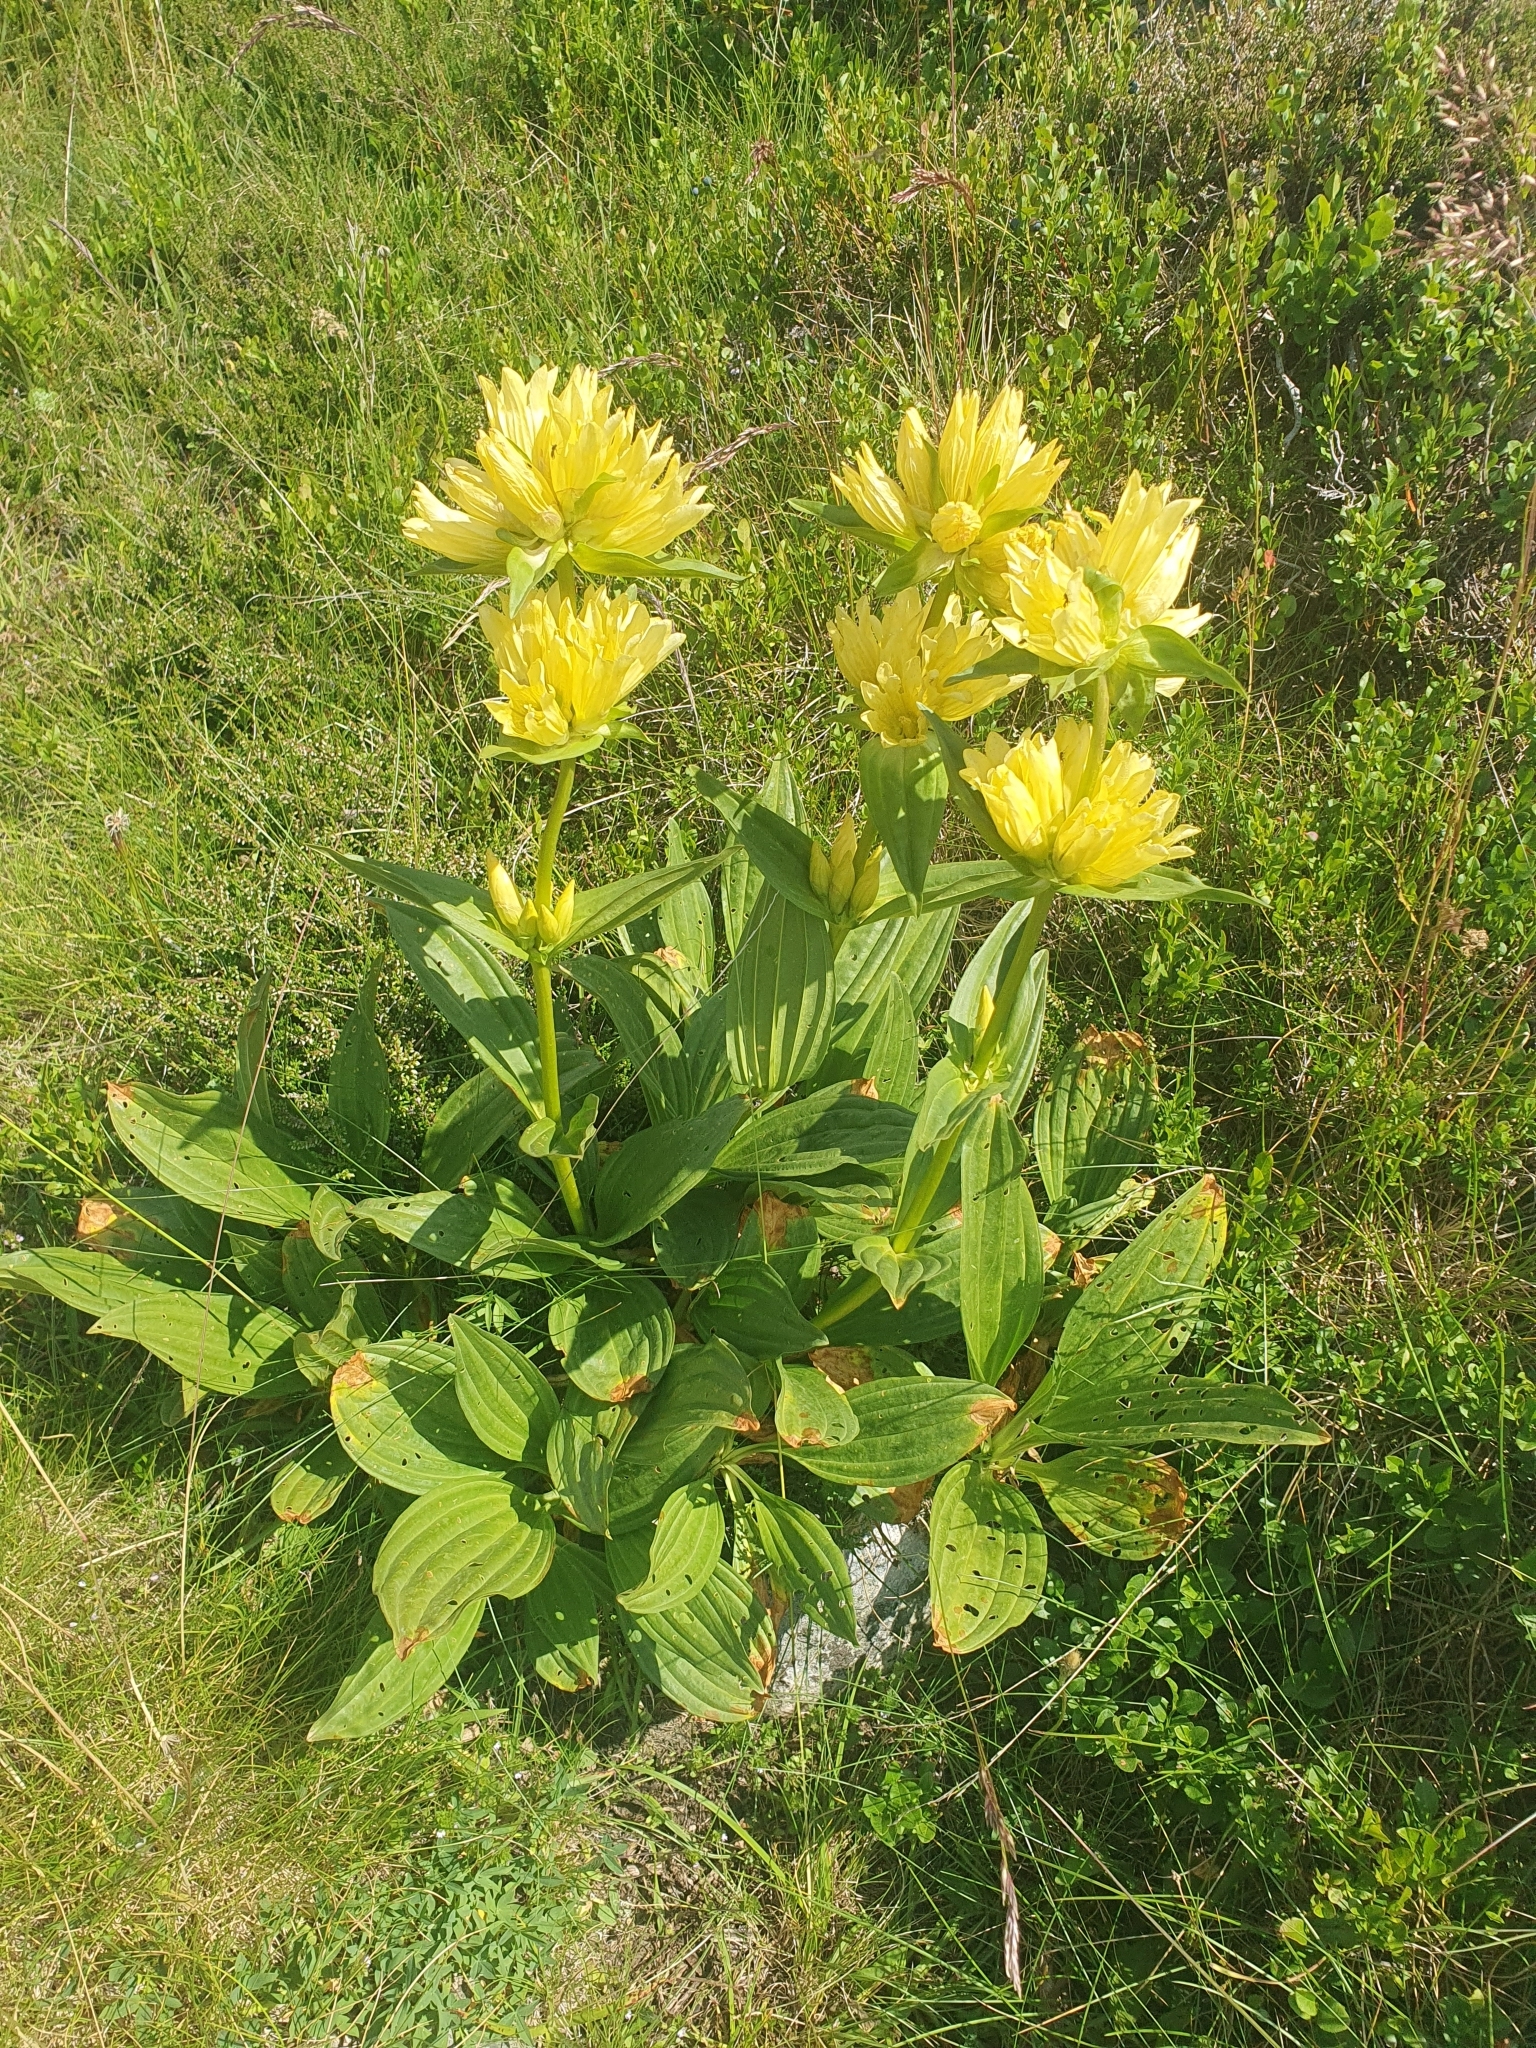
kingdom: Plantae
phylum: Tracheophyta
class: Magnoliopsida
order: Gentianales
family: Gentianaceae
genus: Gentiana
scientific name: Gentiana burseri
